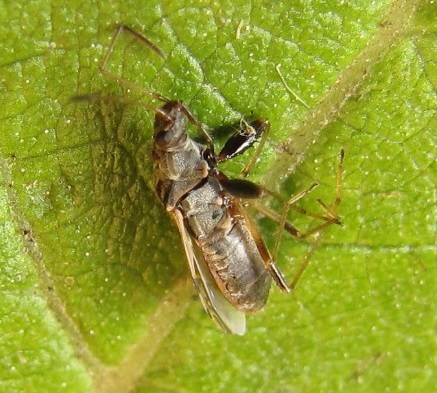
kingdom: Animalia
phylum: Arthropoda
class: Insecta
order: Hemiptera
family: Rhyparochromidae
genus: Neopamera
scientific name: Neopamera bilobata
